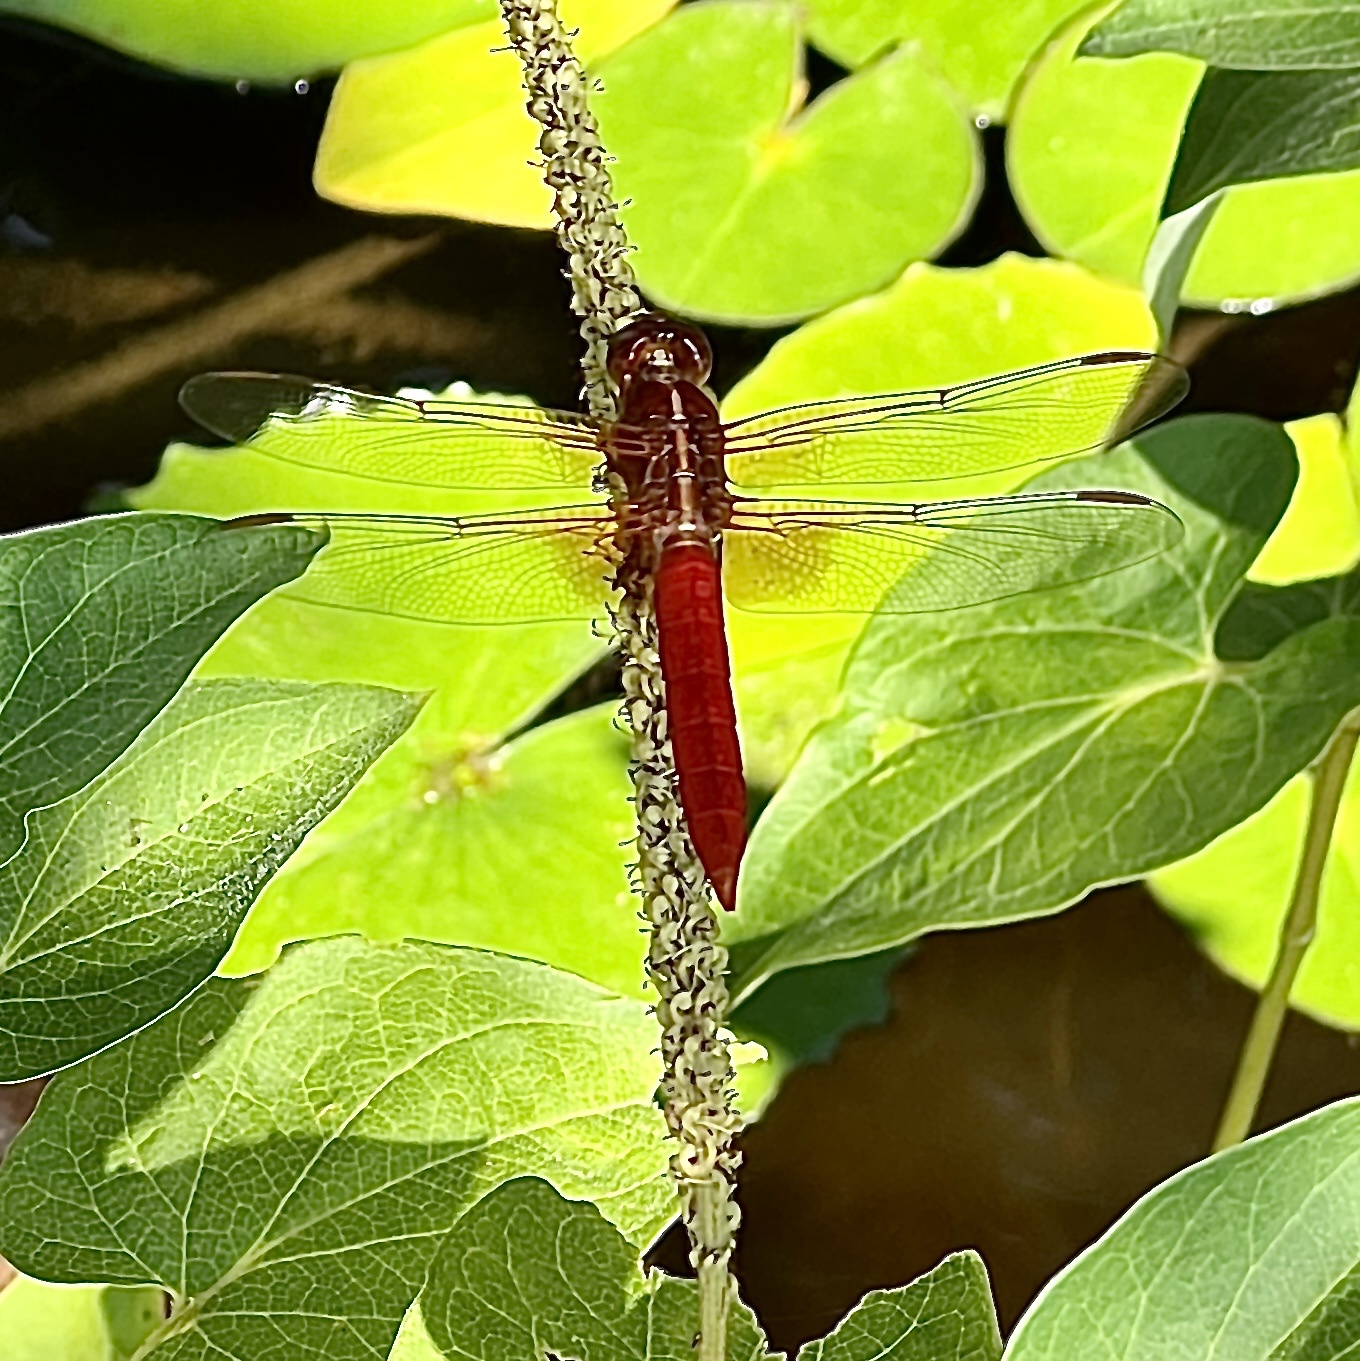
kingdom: Animalia
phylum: Arthropoda
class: Insecta
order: Odonata
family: Libellulidae
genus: Libellula
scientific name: Libellula croceipennis
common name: Neon skimmer
